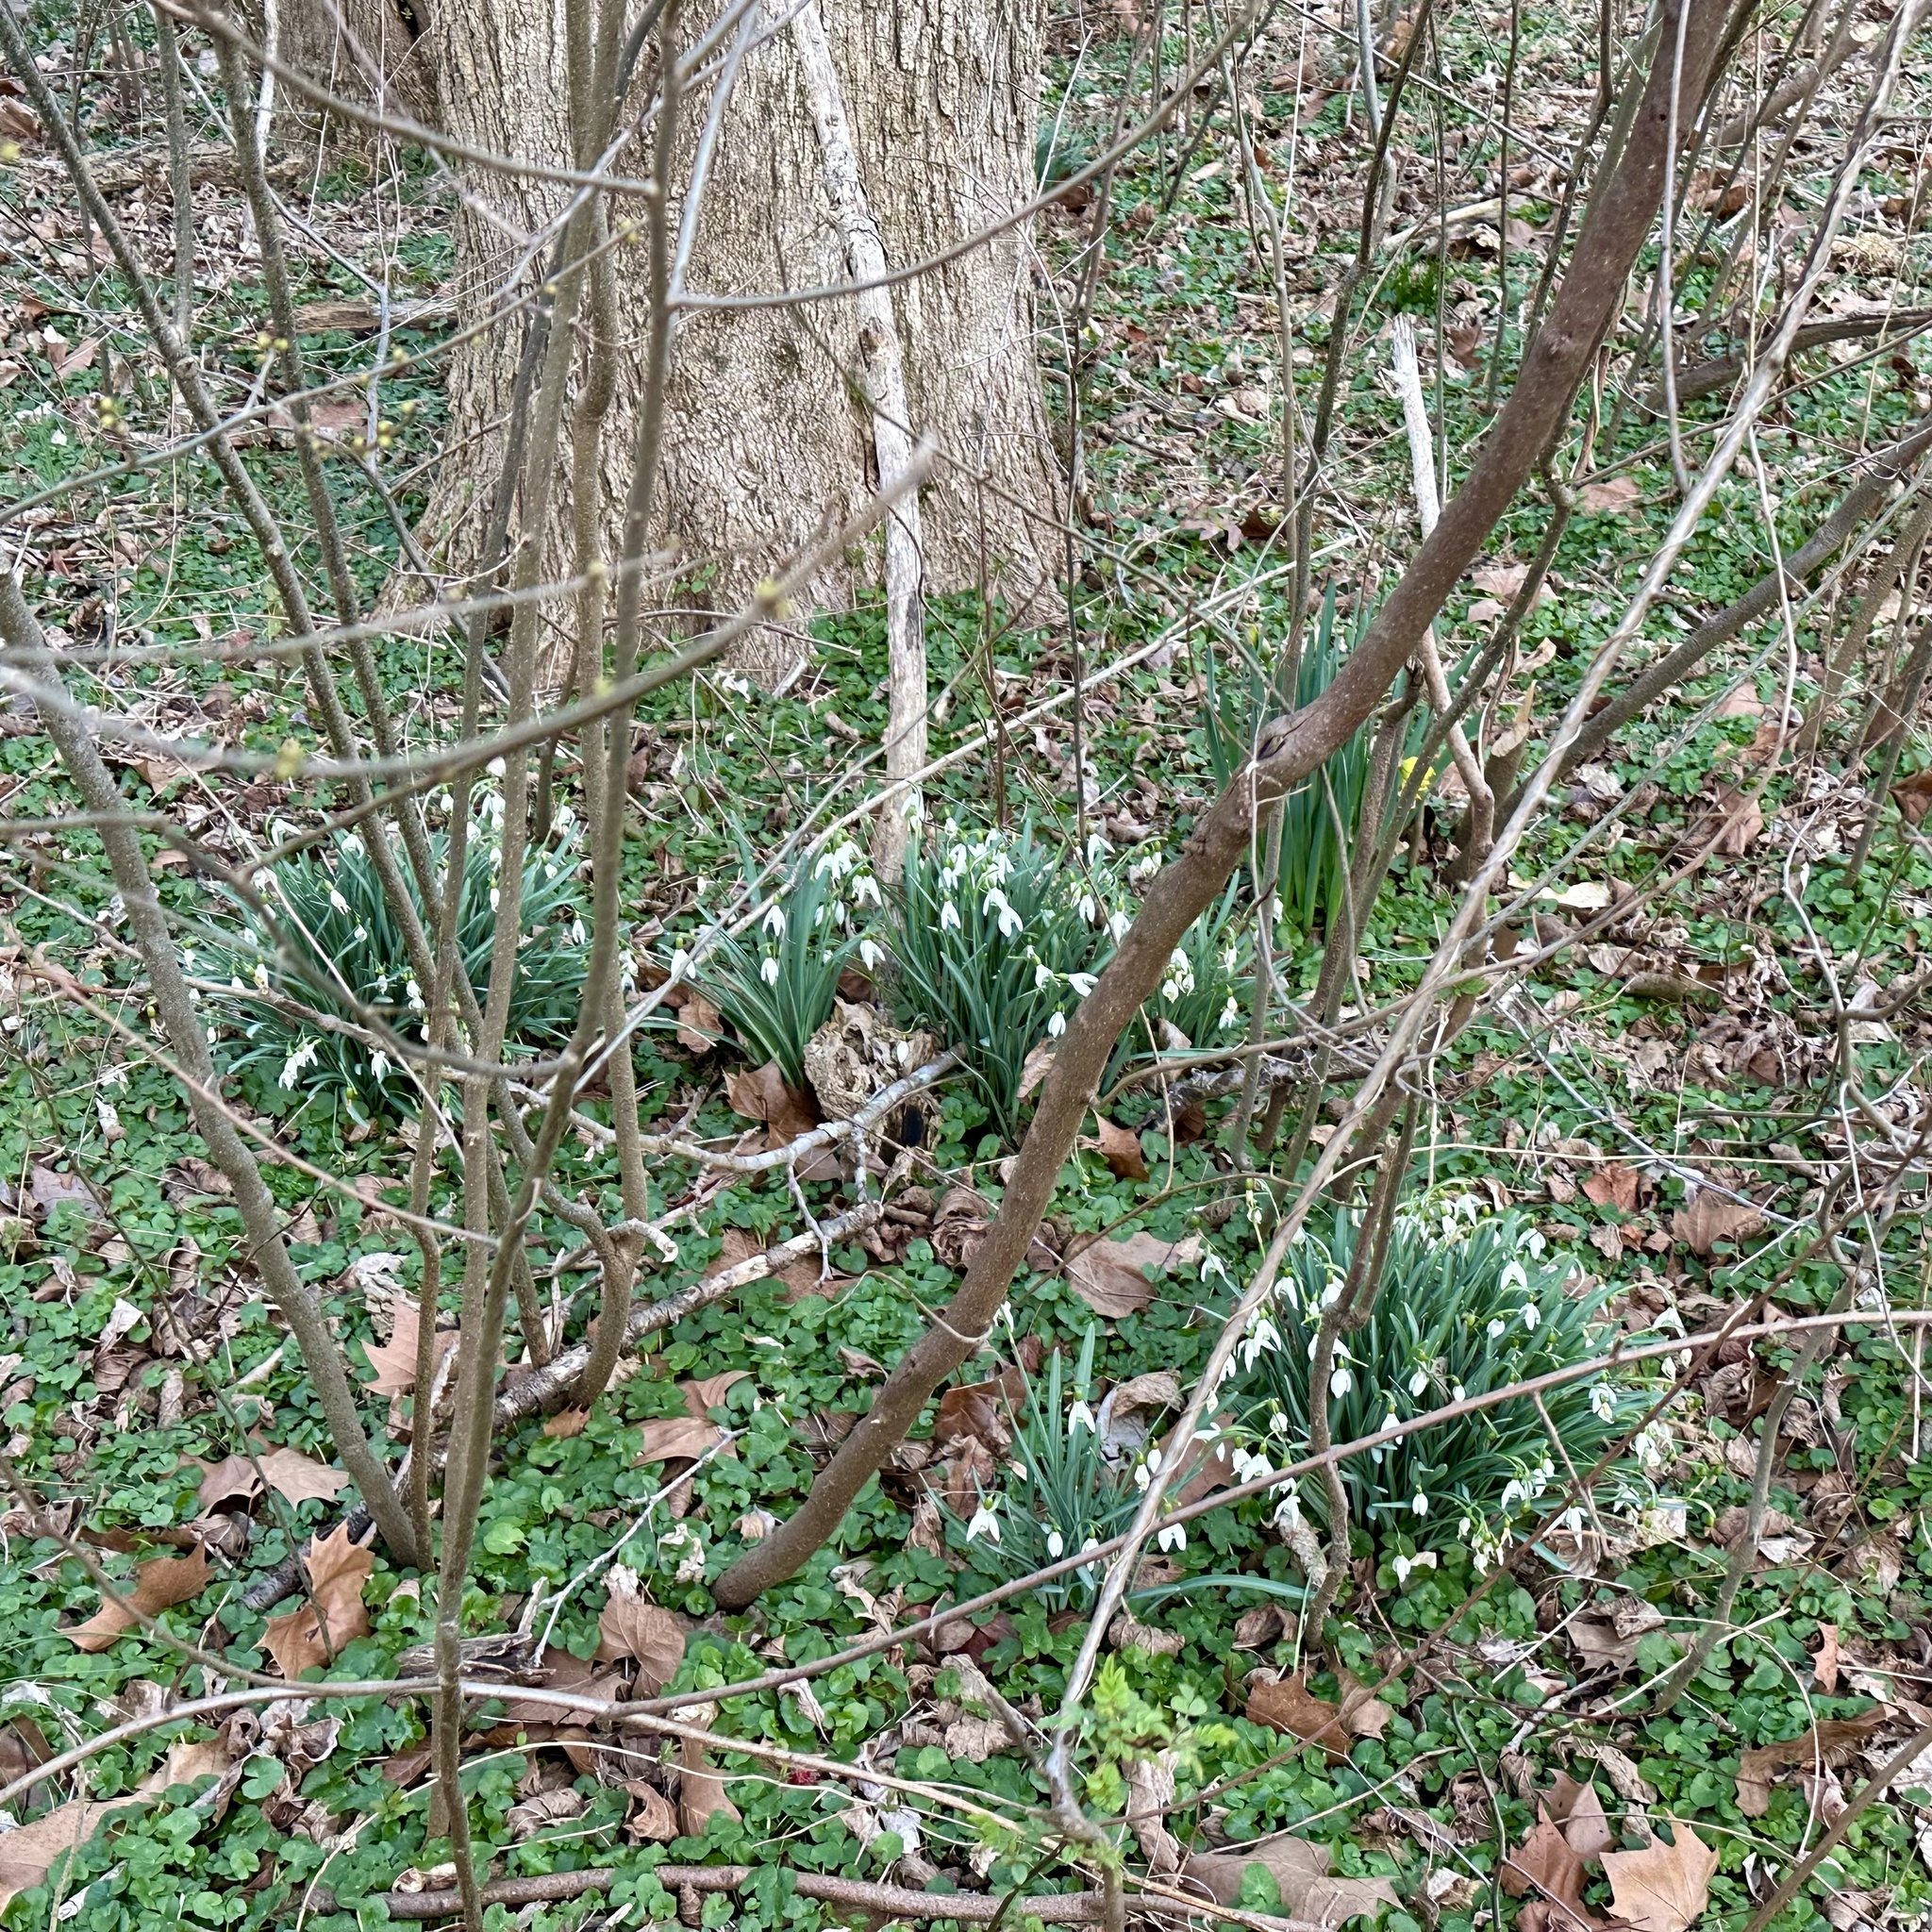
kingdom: Plantae
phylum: Tracheophyta
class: Liliopsida
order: Asparagales
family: Amaryllidaceae
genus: Galanthus
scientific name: Galanthus nivalis
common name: Snowdrop
